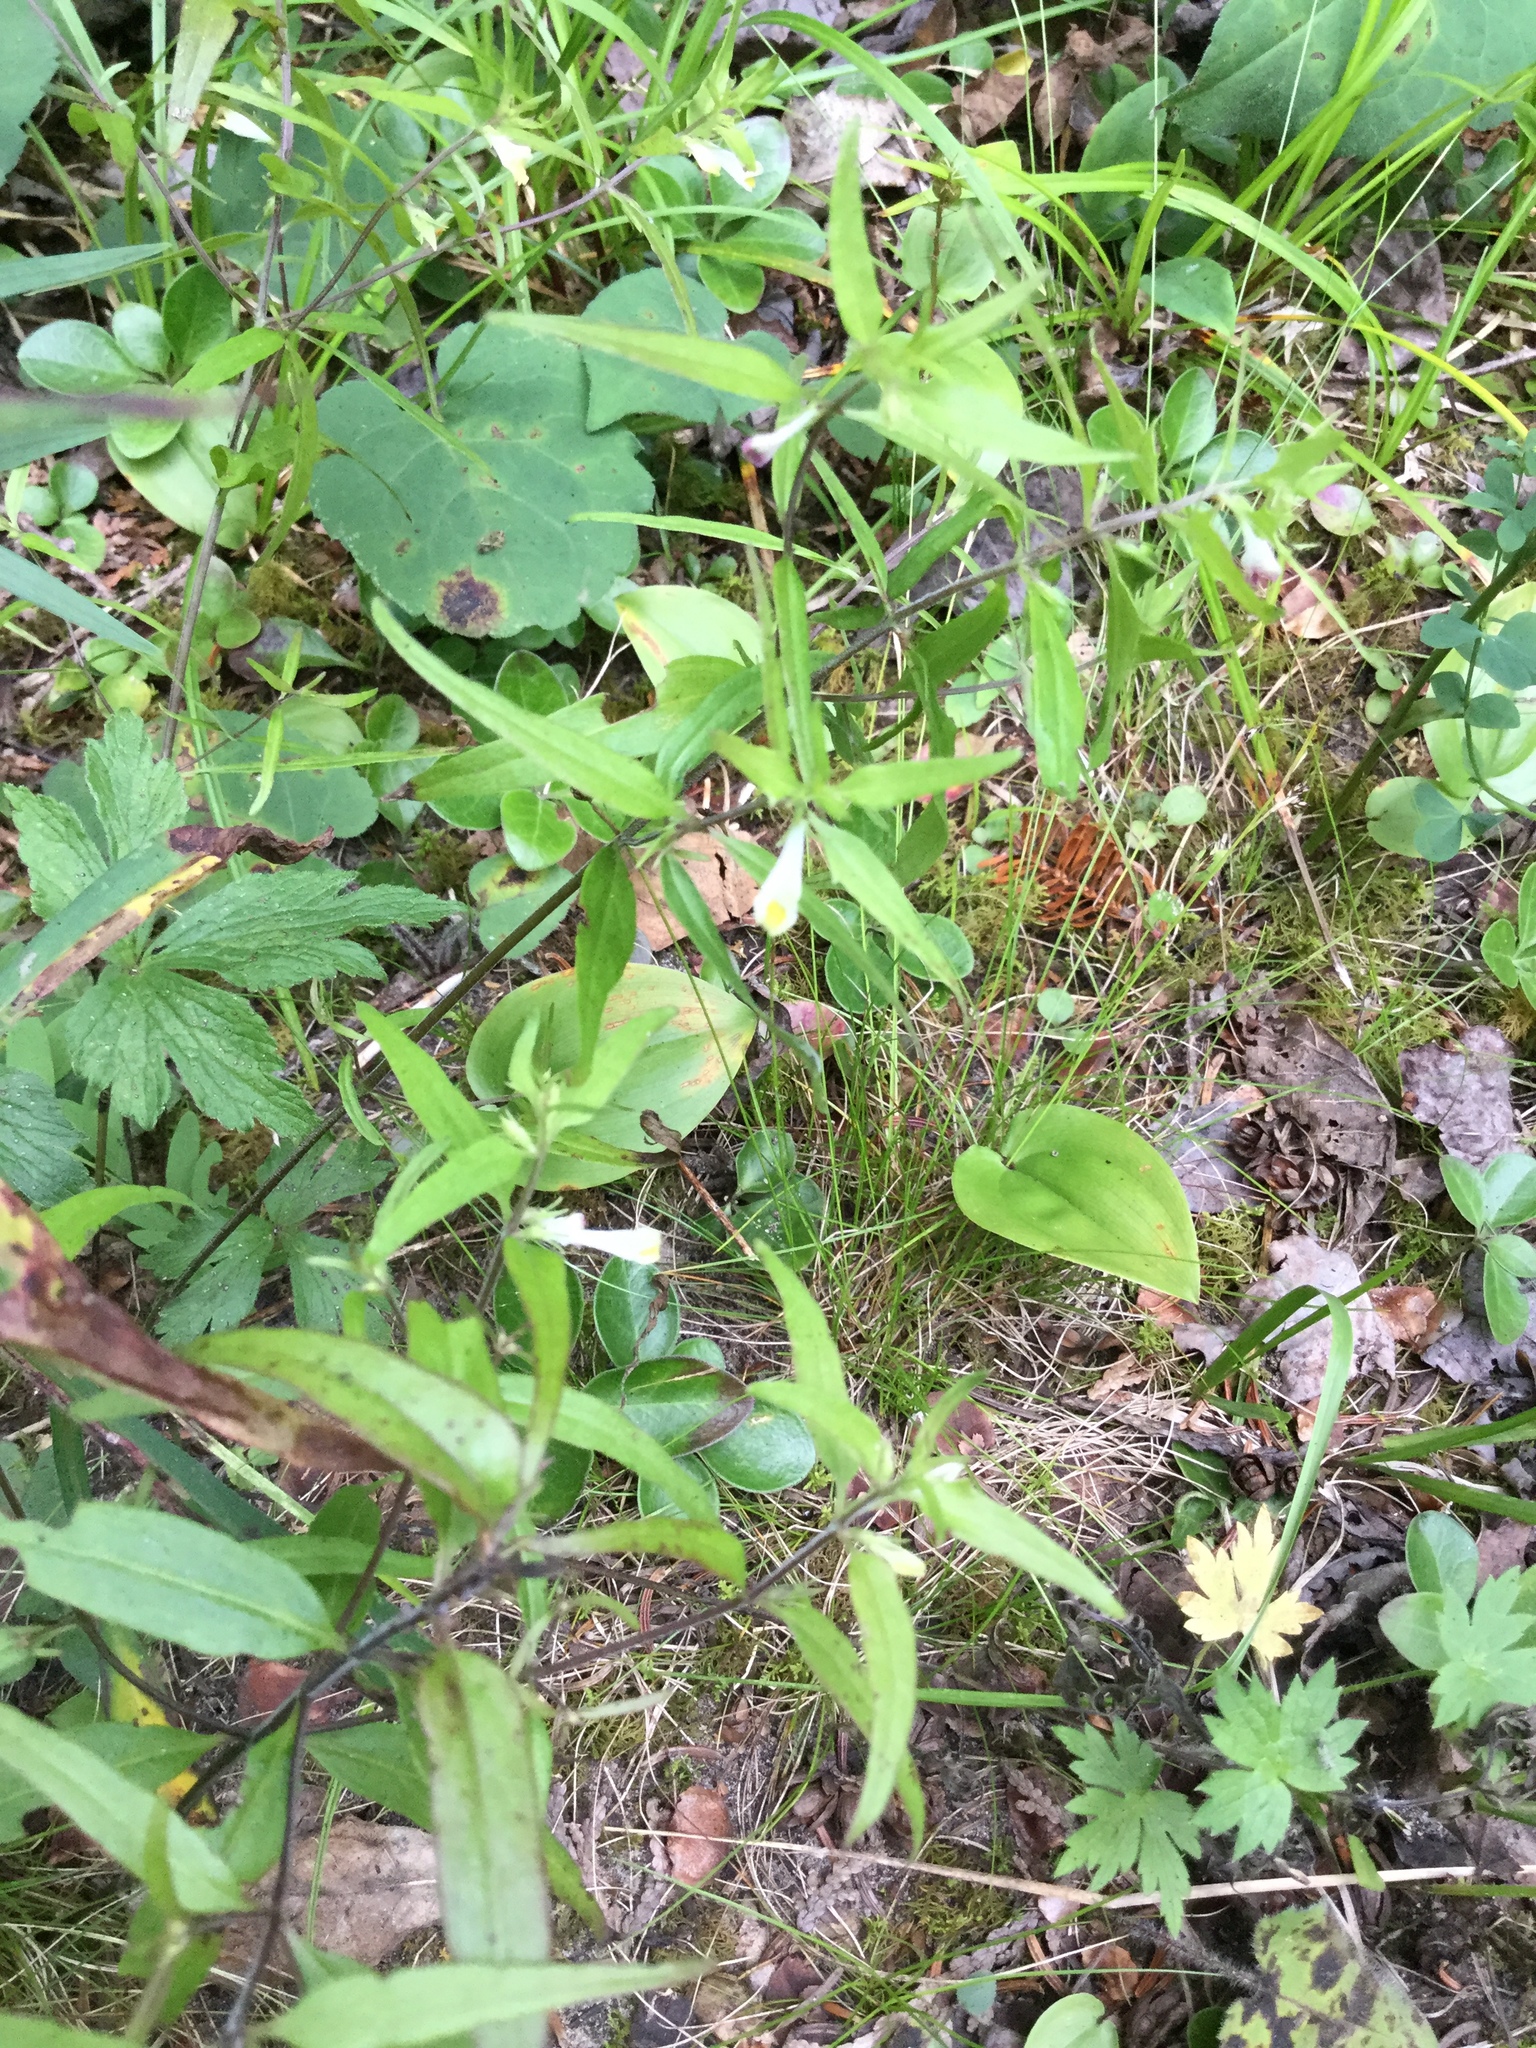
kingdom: Plantae
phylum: Tracheophyta
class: Magnoliopsida
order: Lamiales
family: Orobanchaceae
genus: Melampyrum
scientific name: Melampyrum lineare
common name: American cow-wheat
